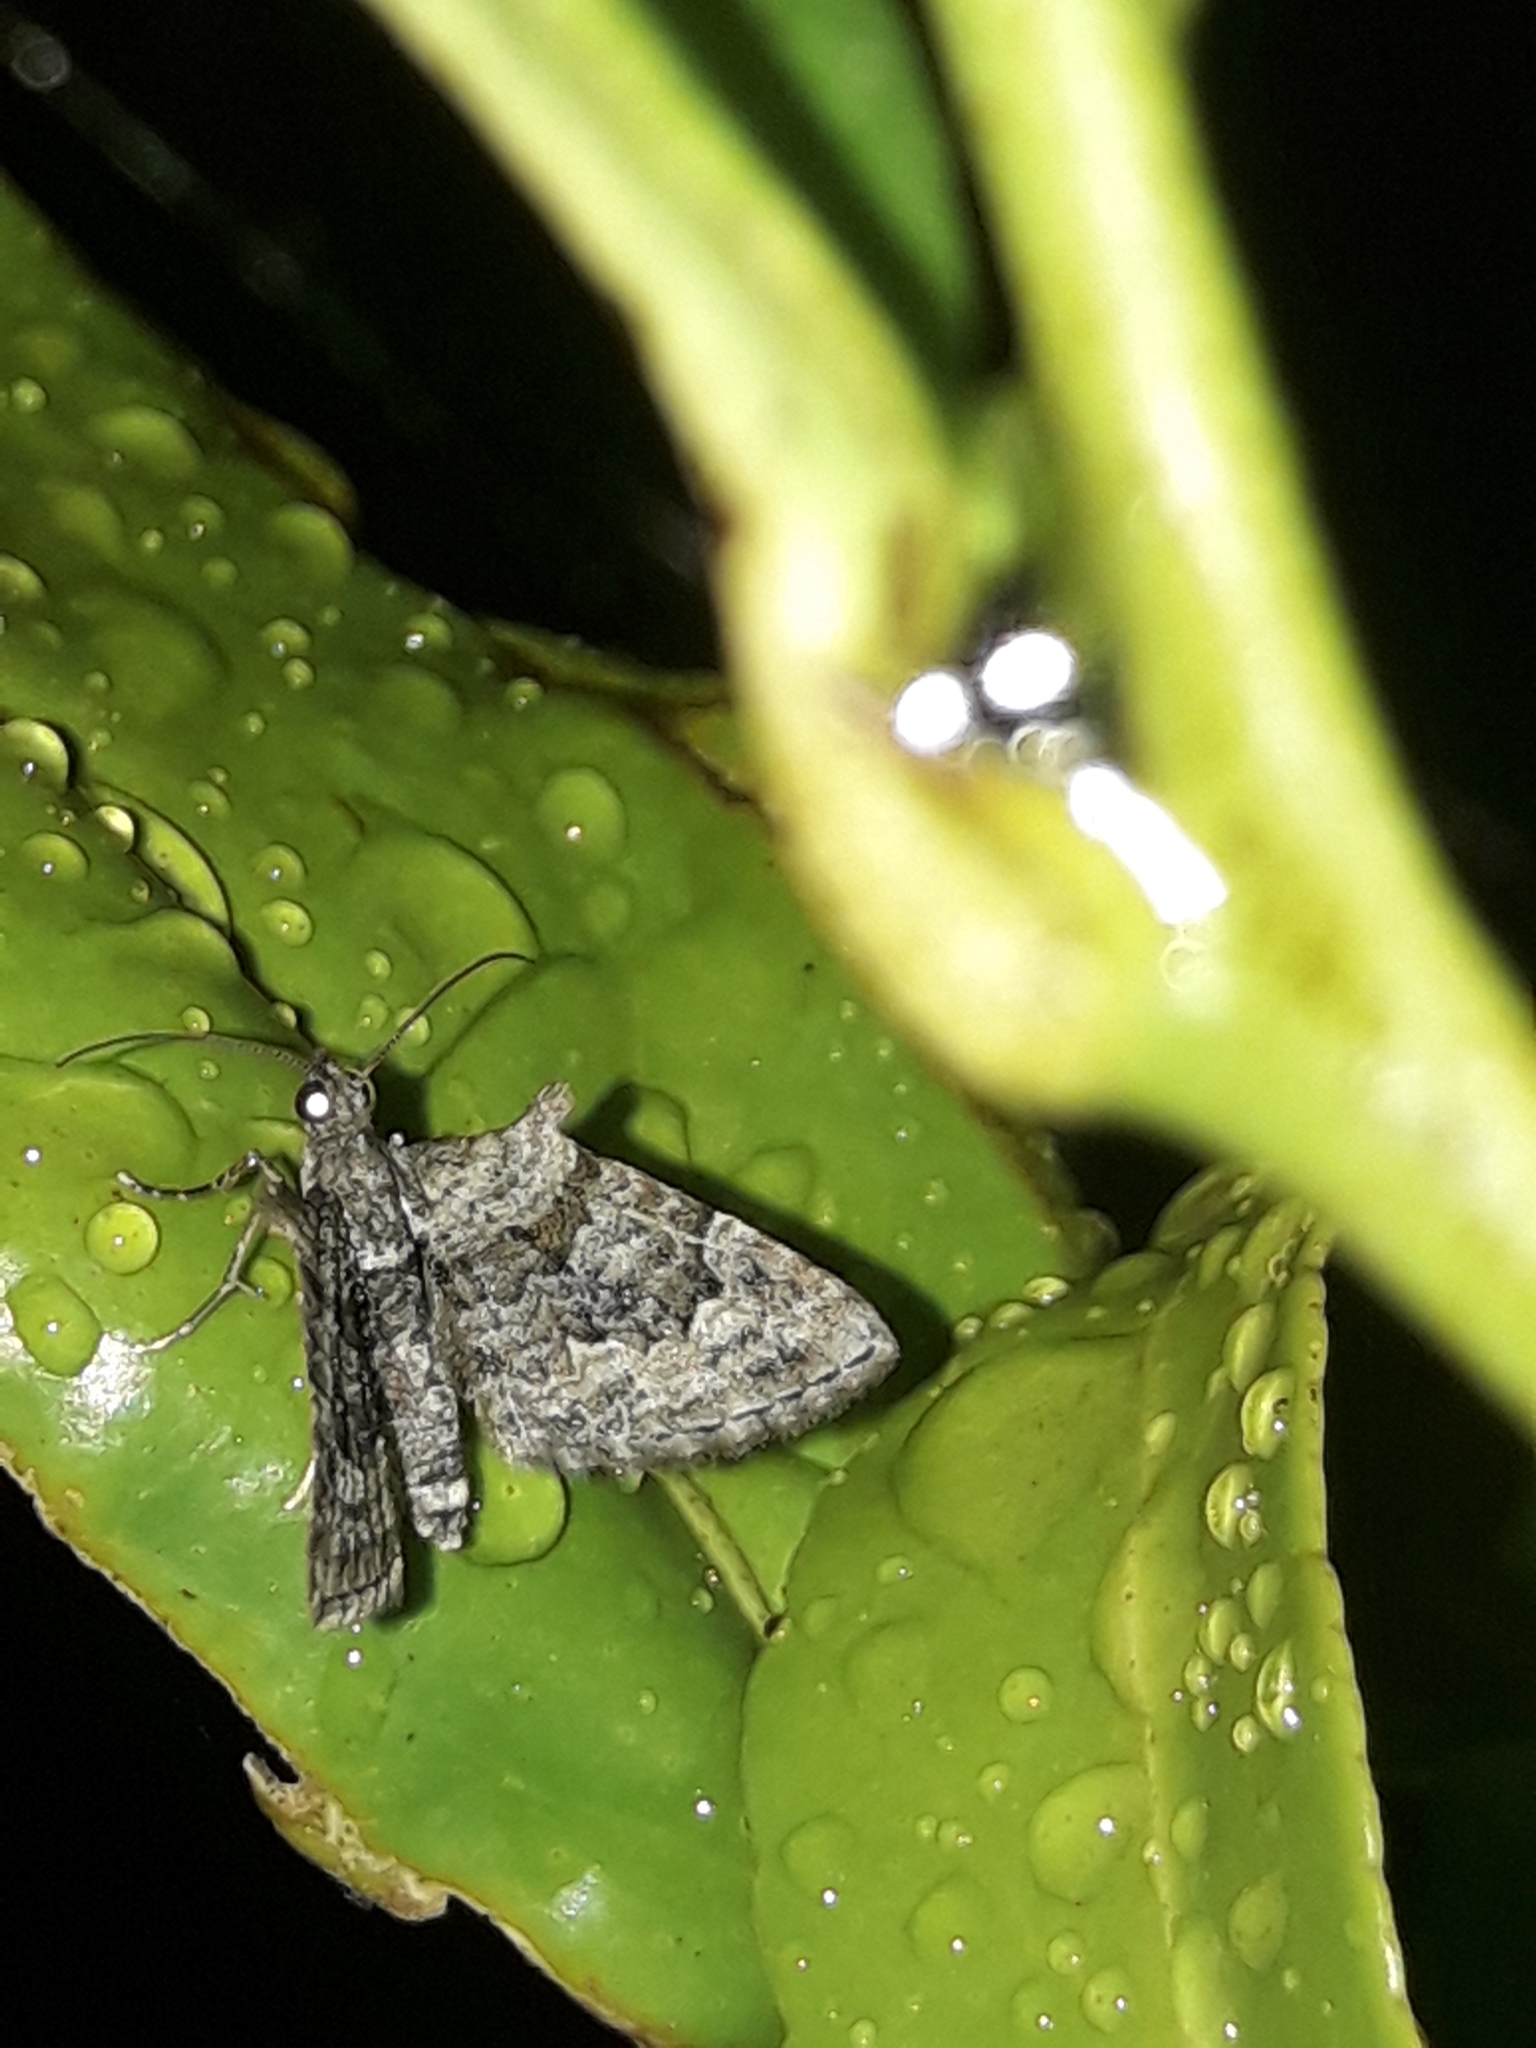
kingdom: Animalia
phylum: Arthropoda
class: Insecta
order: Lepidoptera
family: Geometridae
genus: Phrissogonus
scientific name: Phrissogonus laticostata
